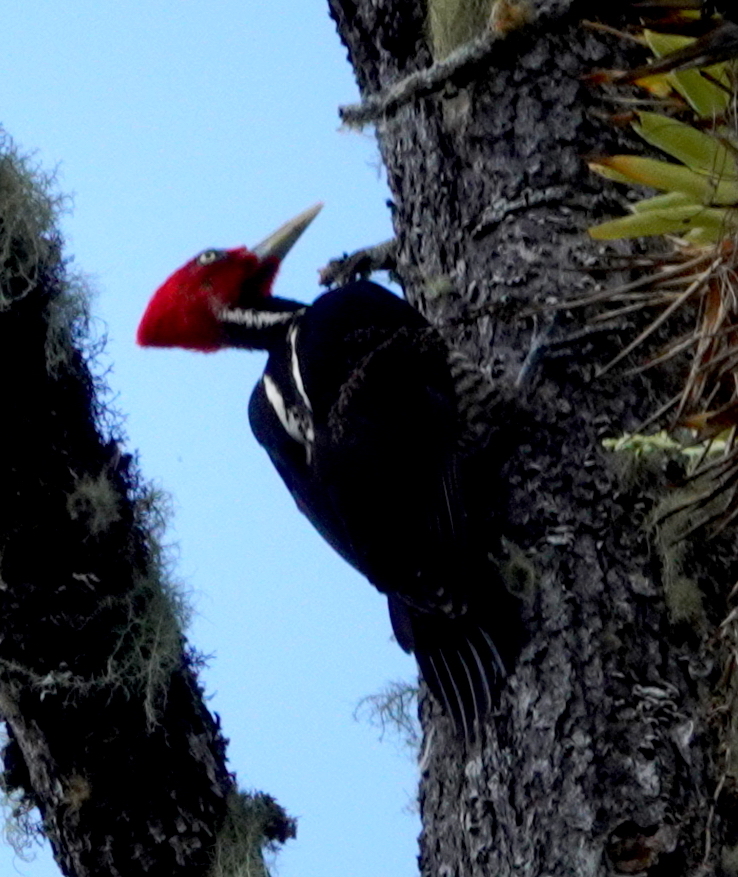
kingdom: Animalia
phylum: Chordata
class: Aves
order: Piciformes
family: Picidae
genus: Campephilus
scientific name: Campephilus guatemalensis
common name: Pale-billed woodpecker
